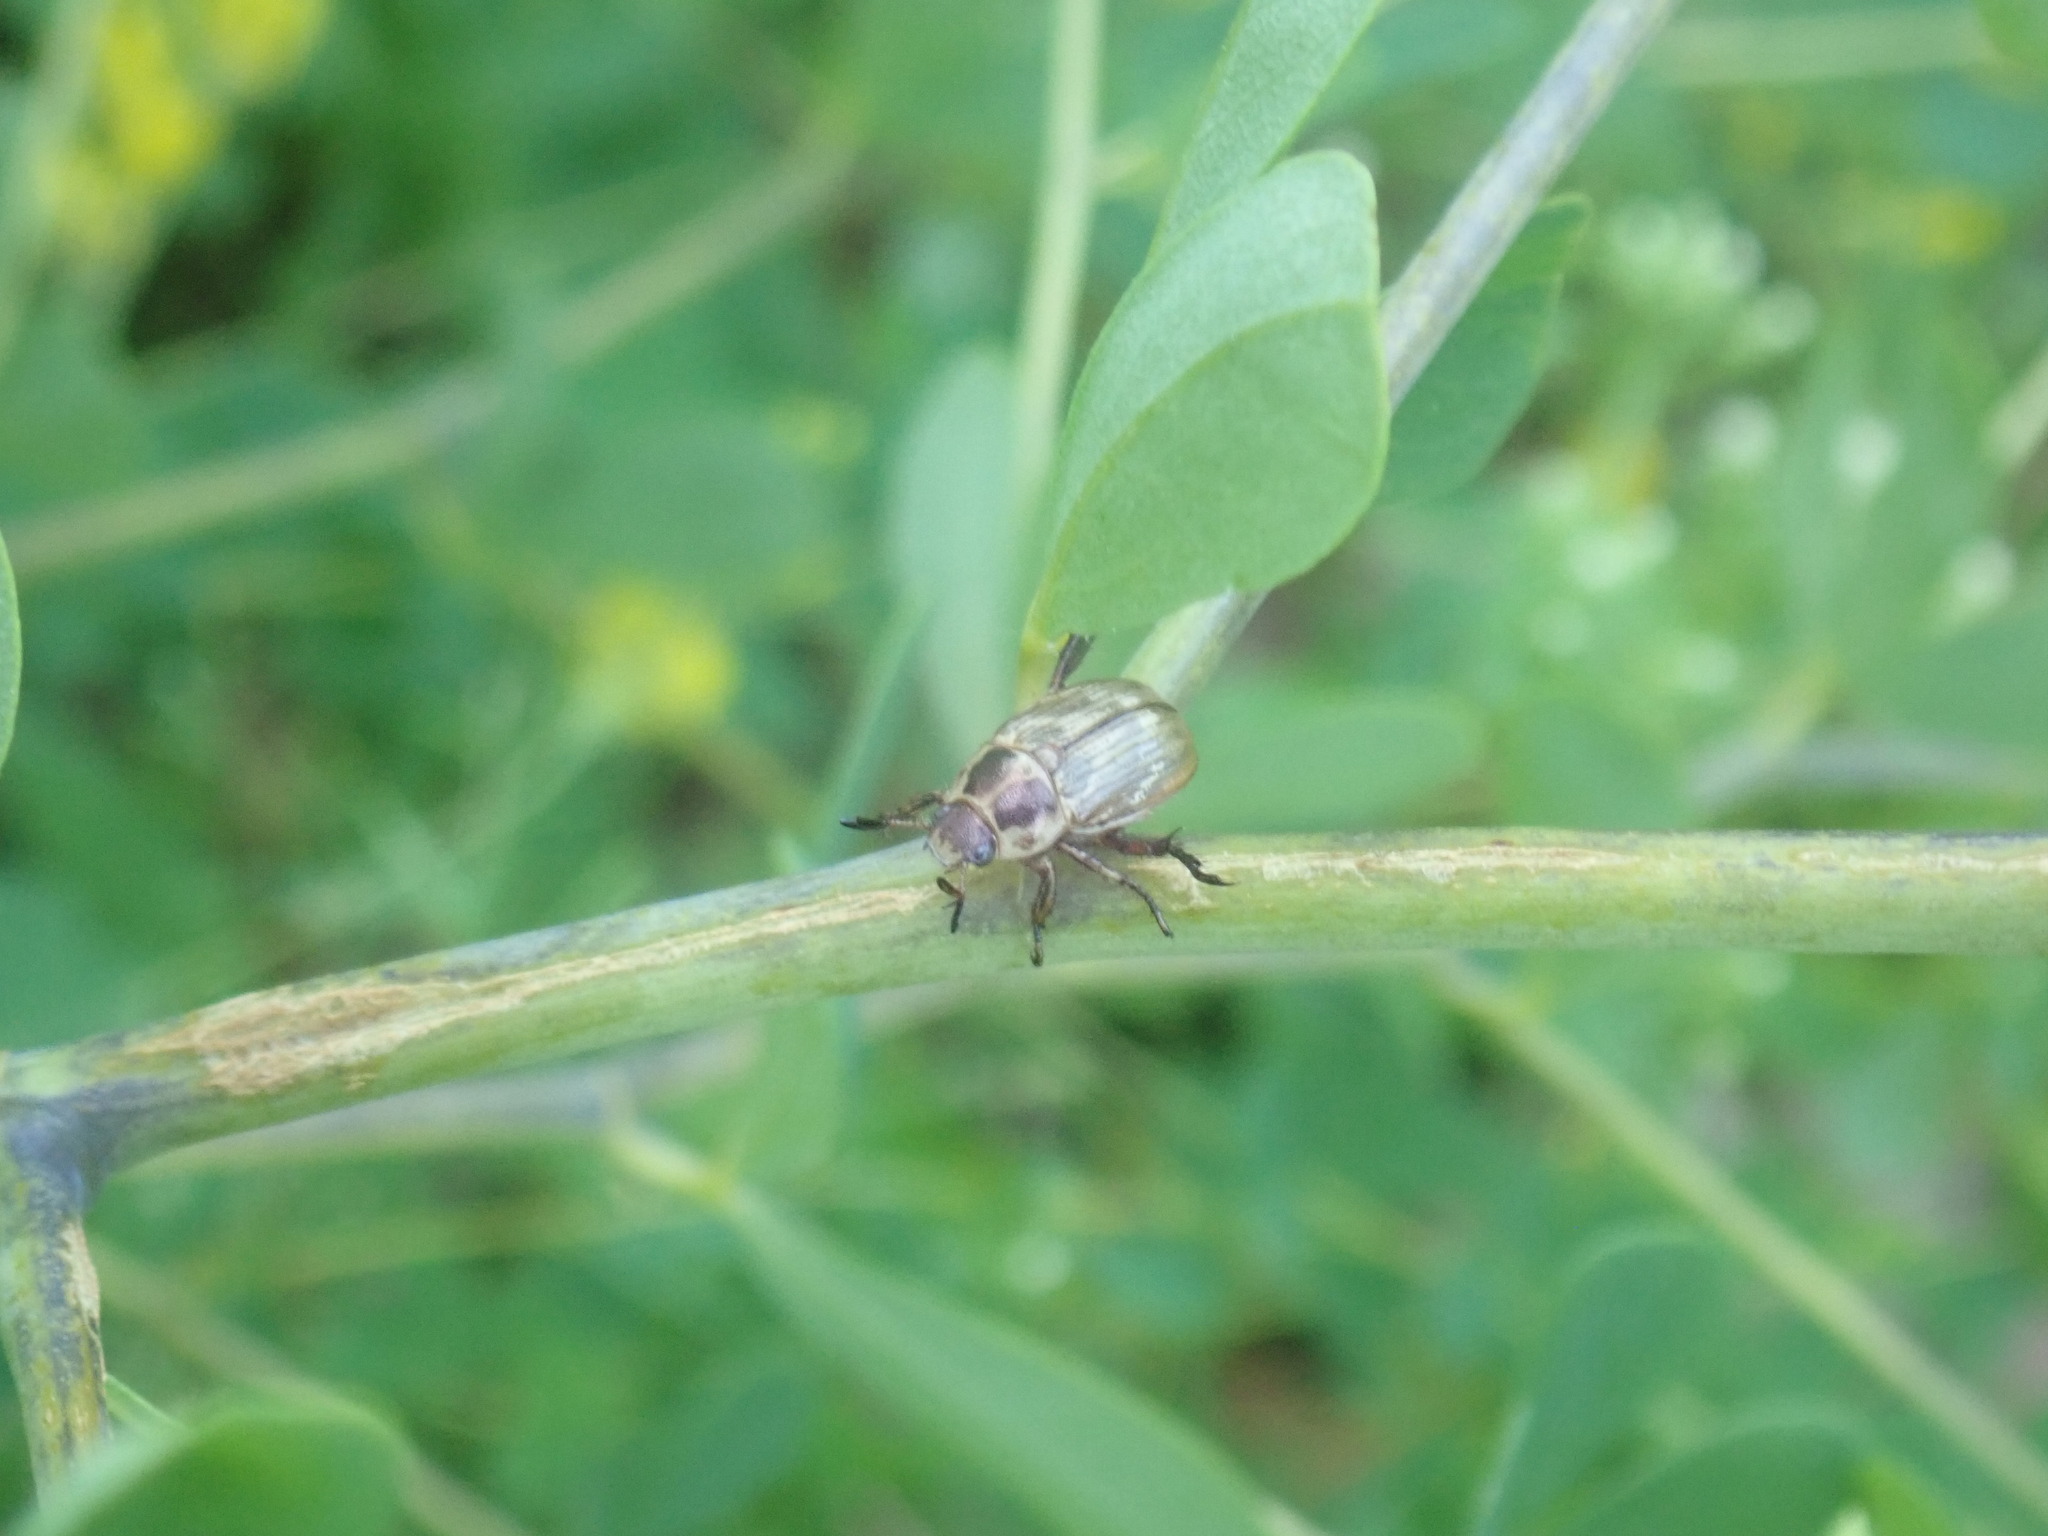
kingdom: Animalia
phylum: Arthropoda
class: Insecta
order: Coleoptera
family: Scarabaeidae
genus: Exomala
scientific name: Exomala orientalis
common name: Oriental beetle
